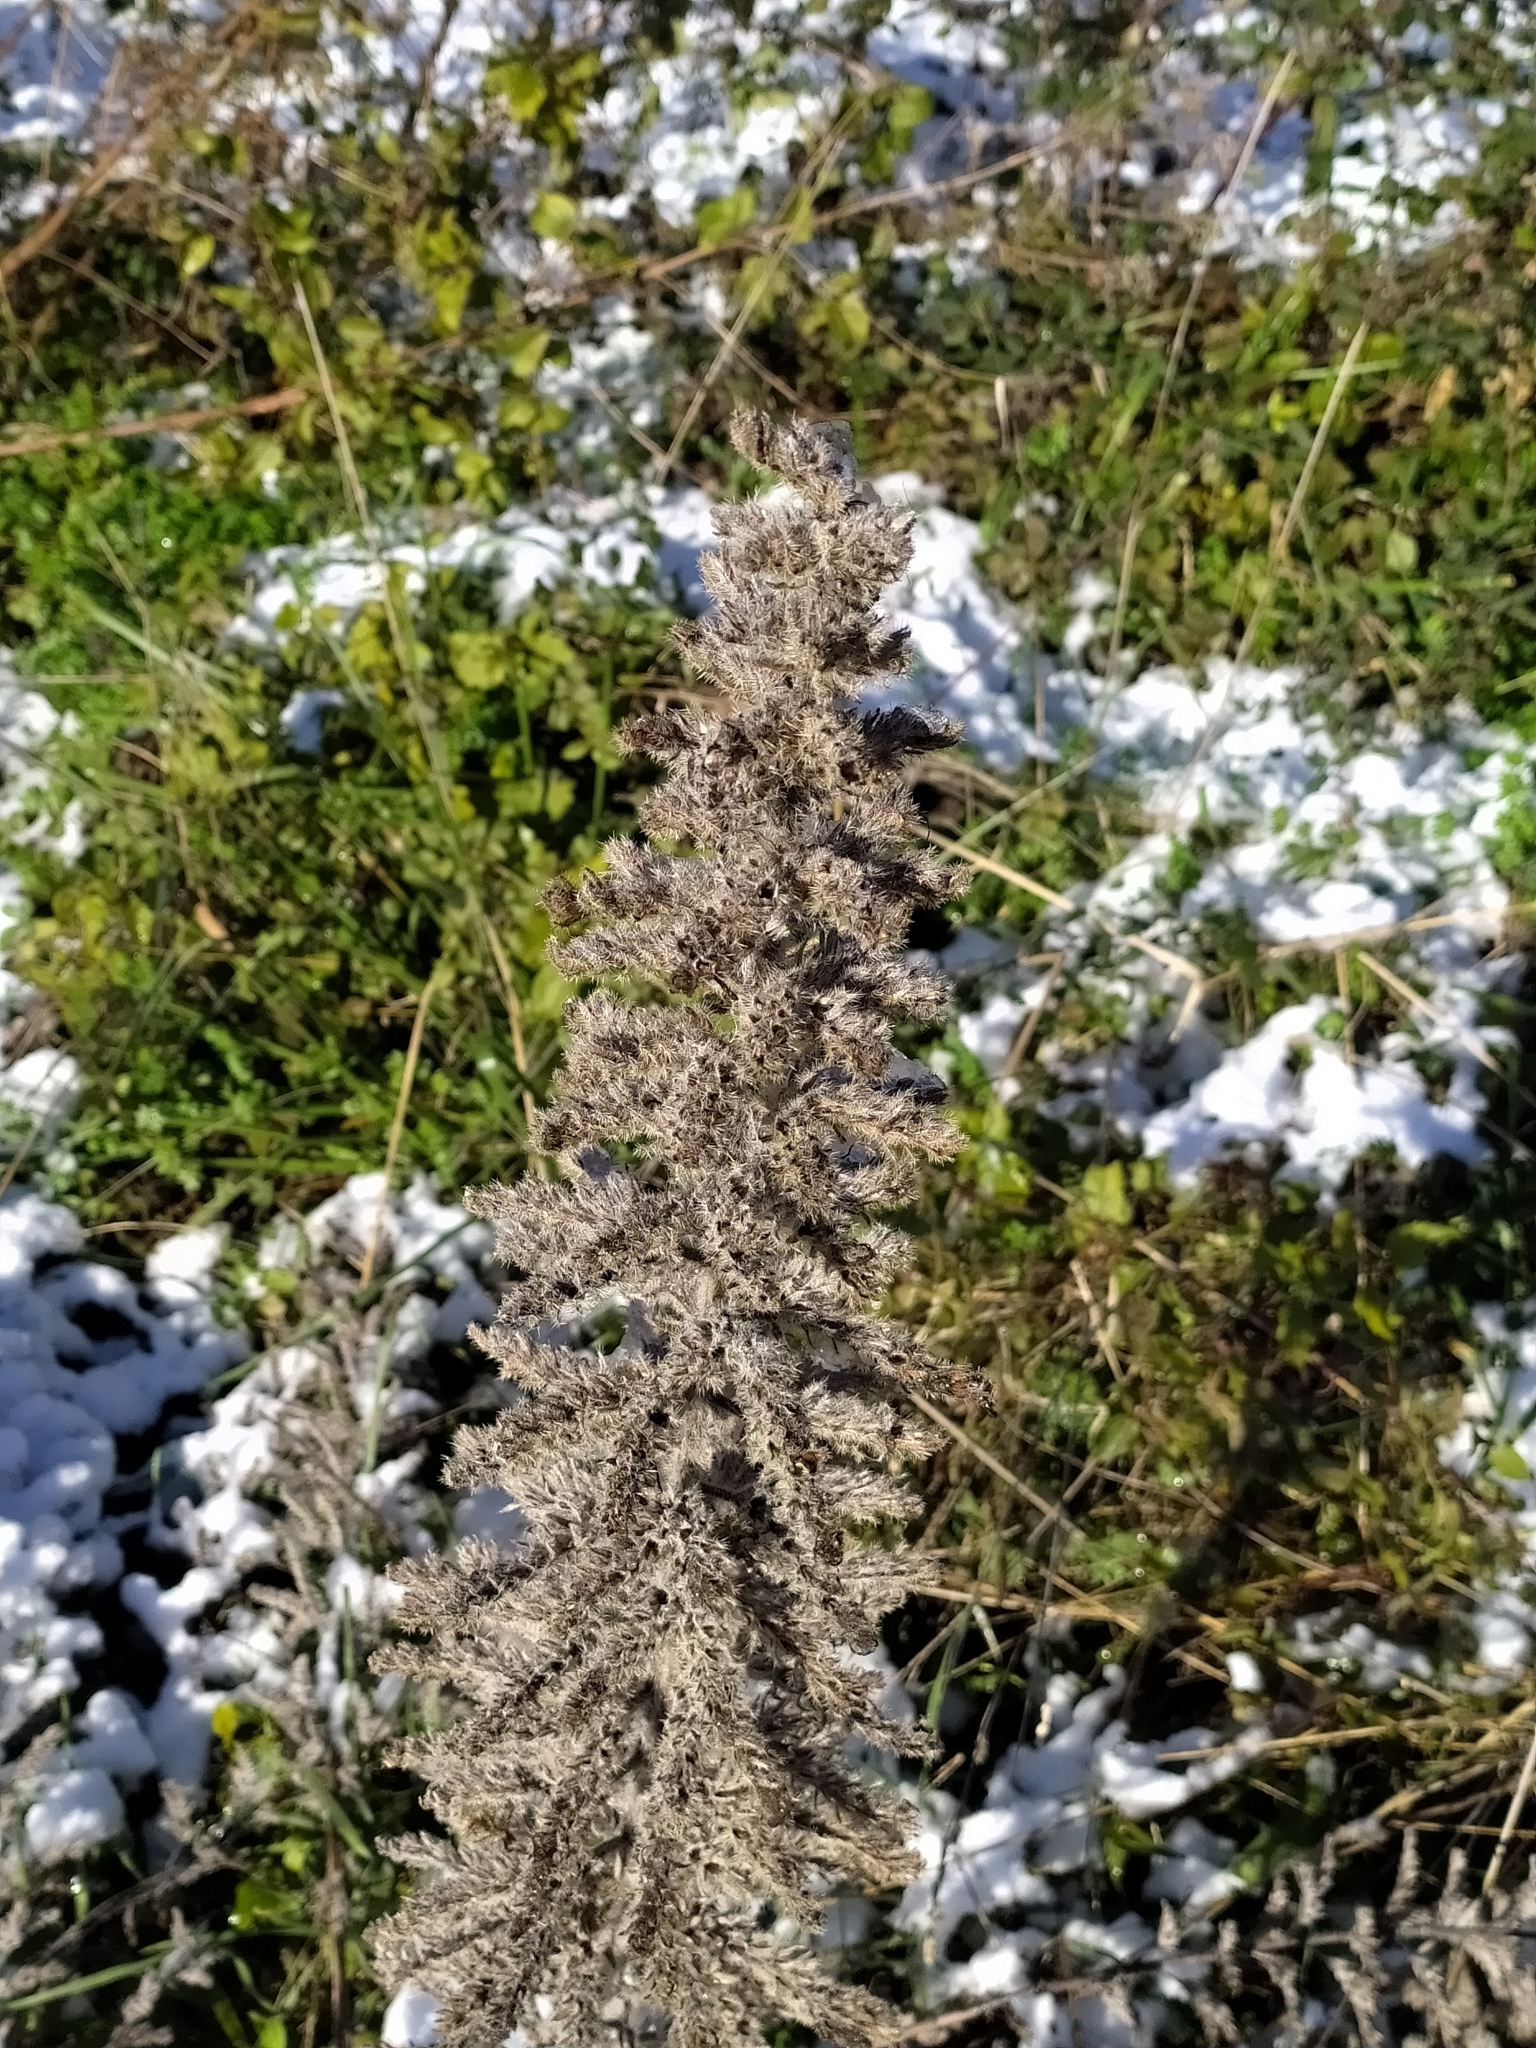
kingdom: Plantae
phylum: Tracheophyta
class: Magnoliopsida
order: Boraginales
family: Boraginaceae
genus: Echium
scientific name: Echium italicum
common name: Italian viper's bugloss
